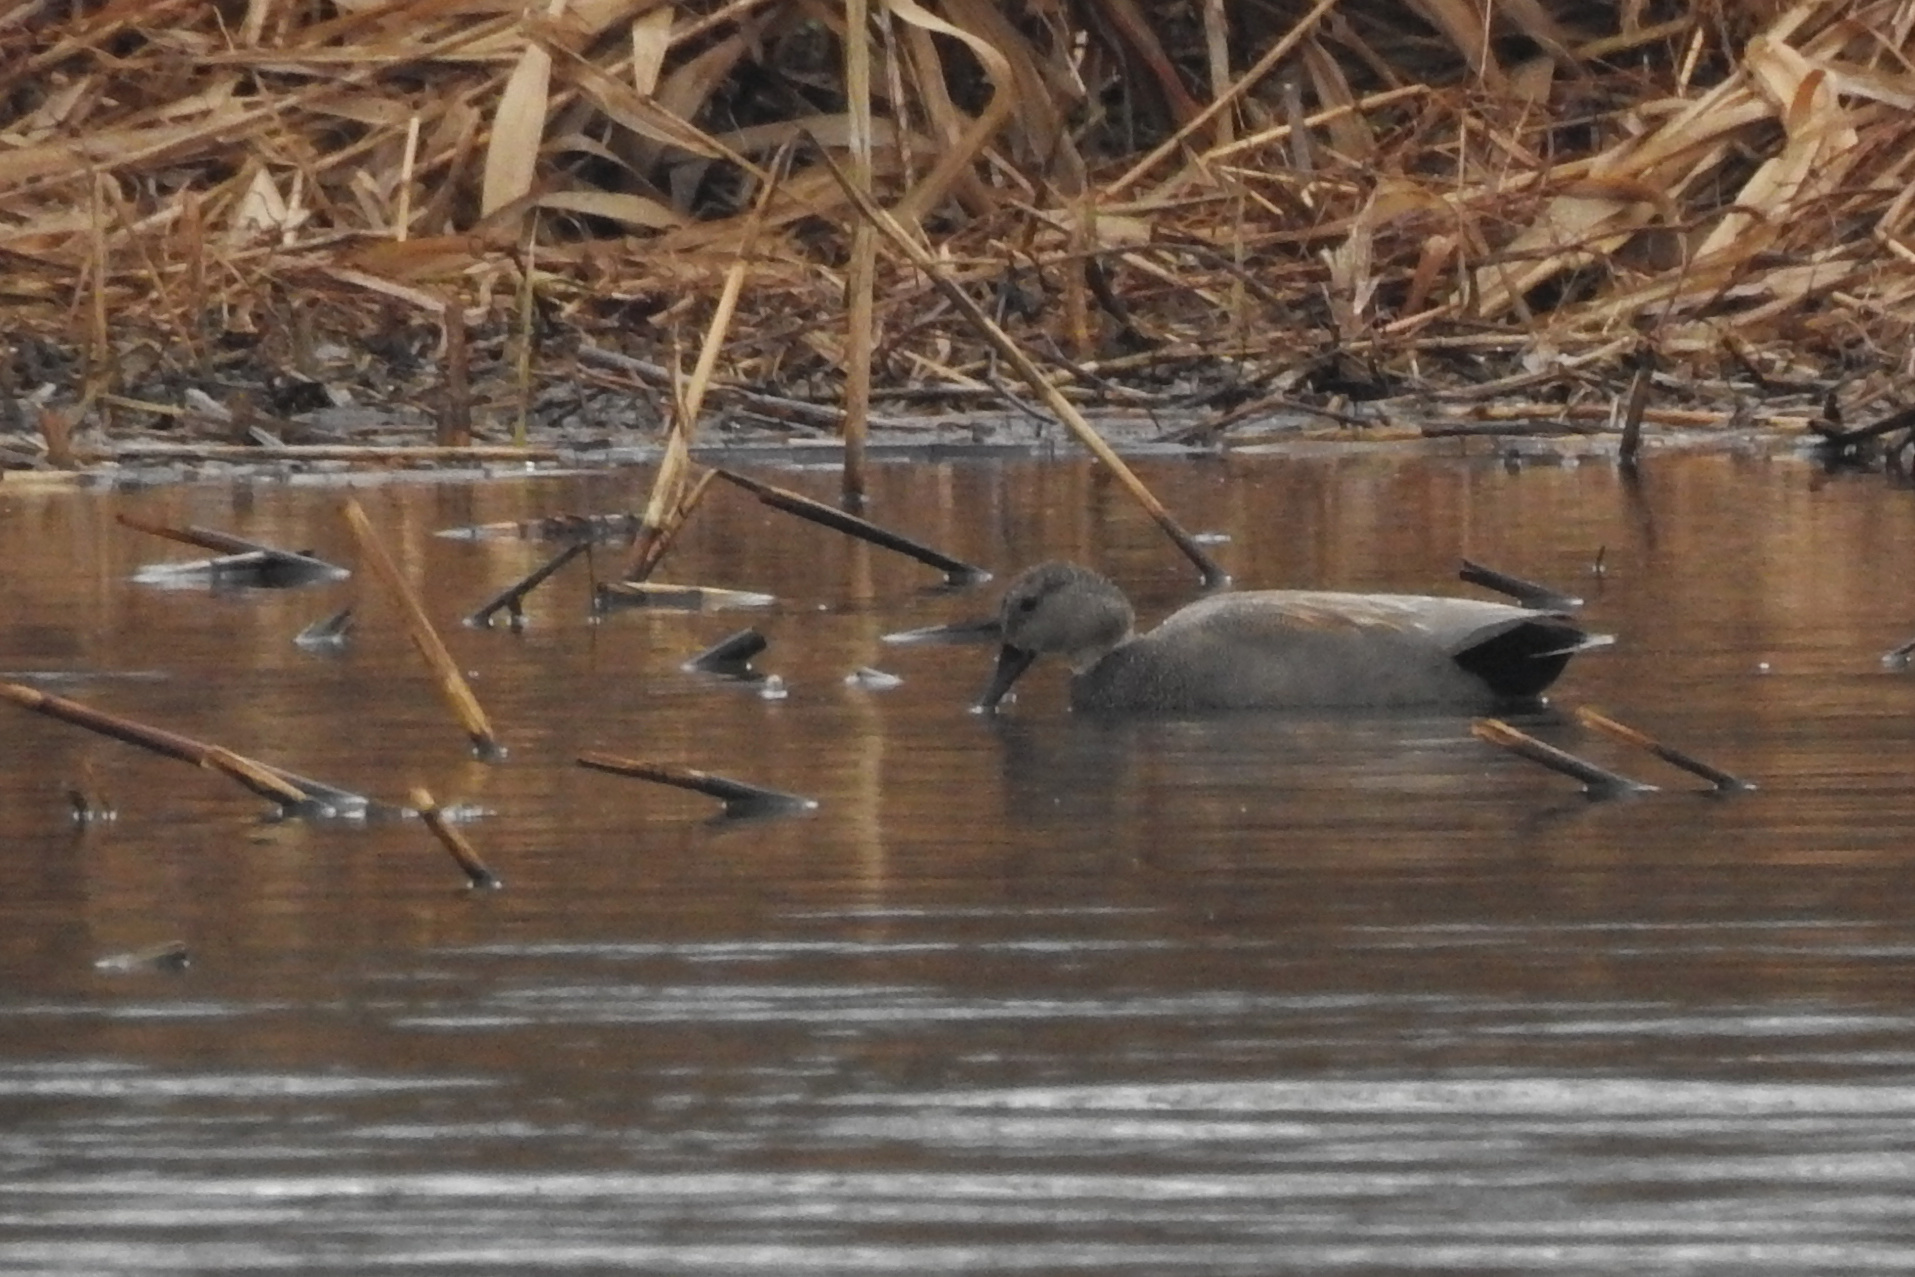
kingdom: Animalia
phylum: Chordata
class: Aves
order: Anseriformes
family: Anatidae
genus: Mareca
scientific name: Mareca strepera
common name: Gadwall
